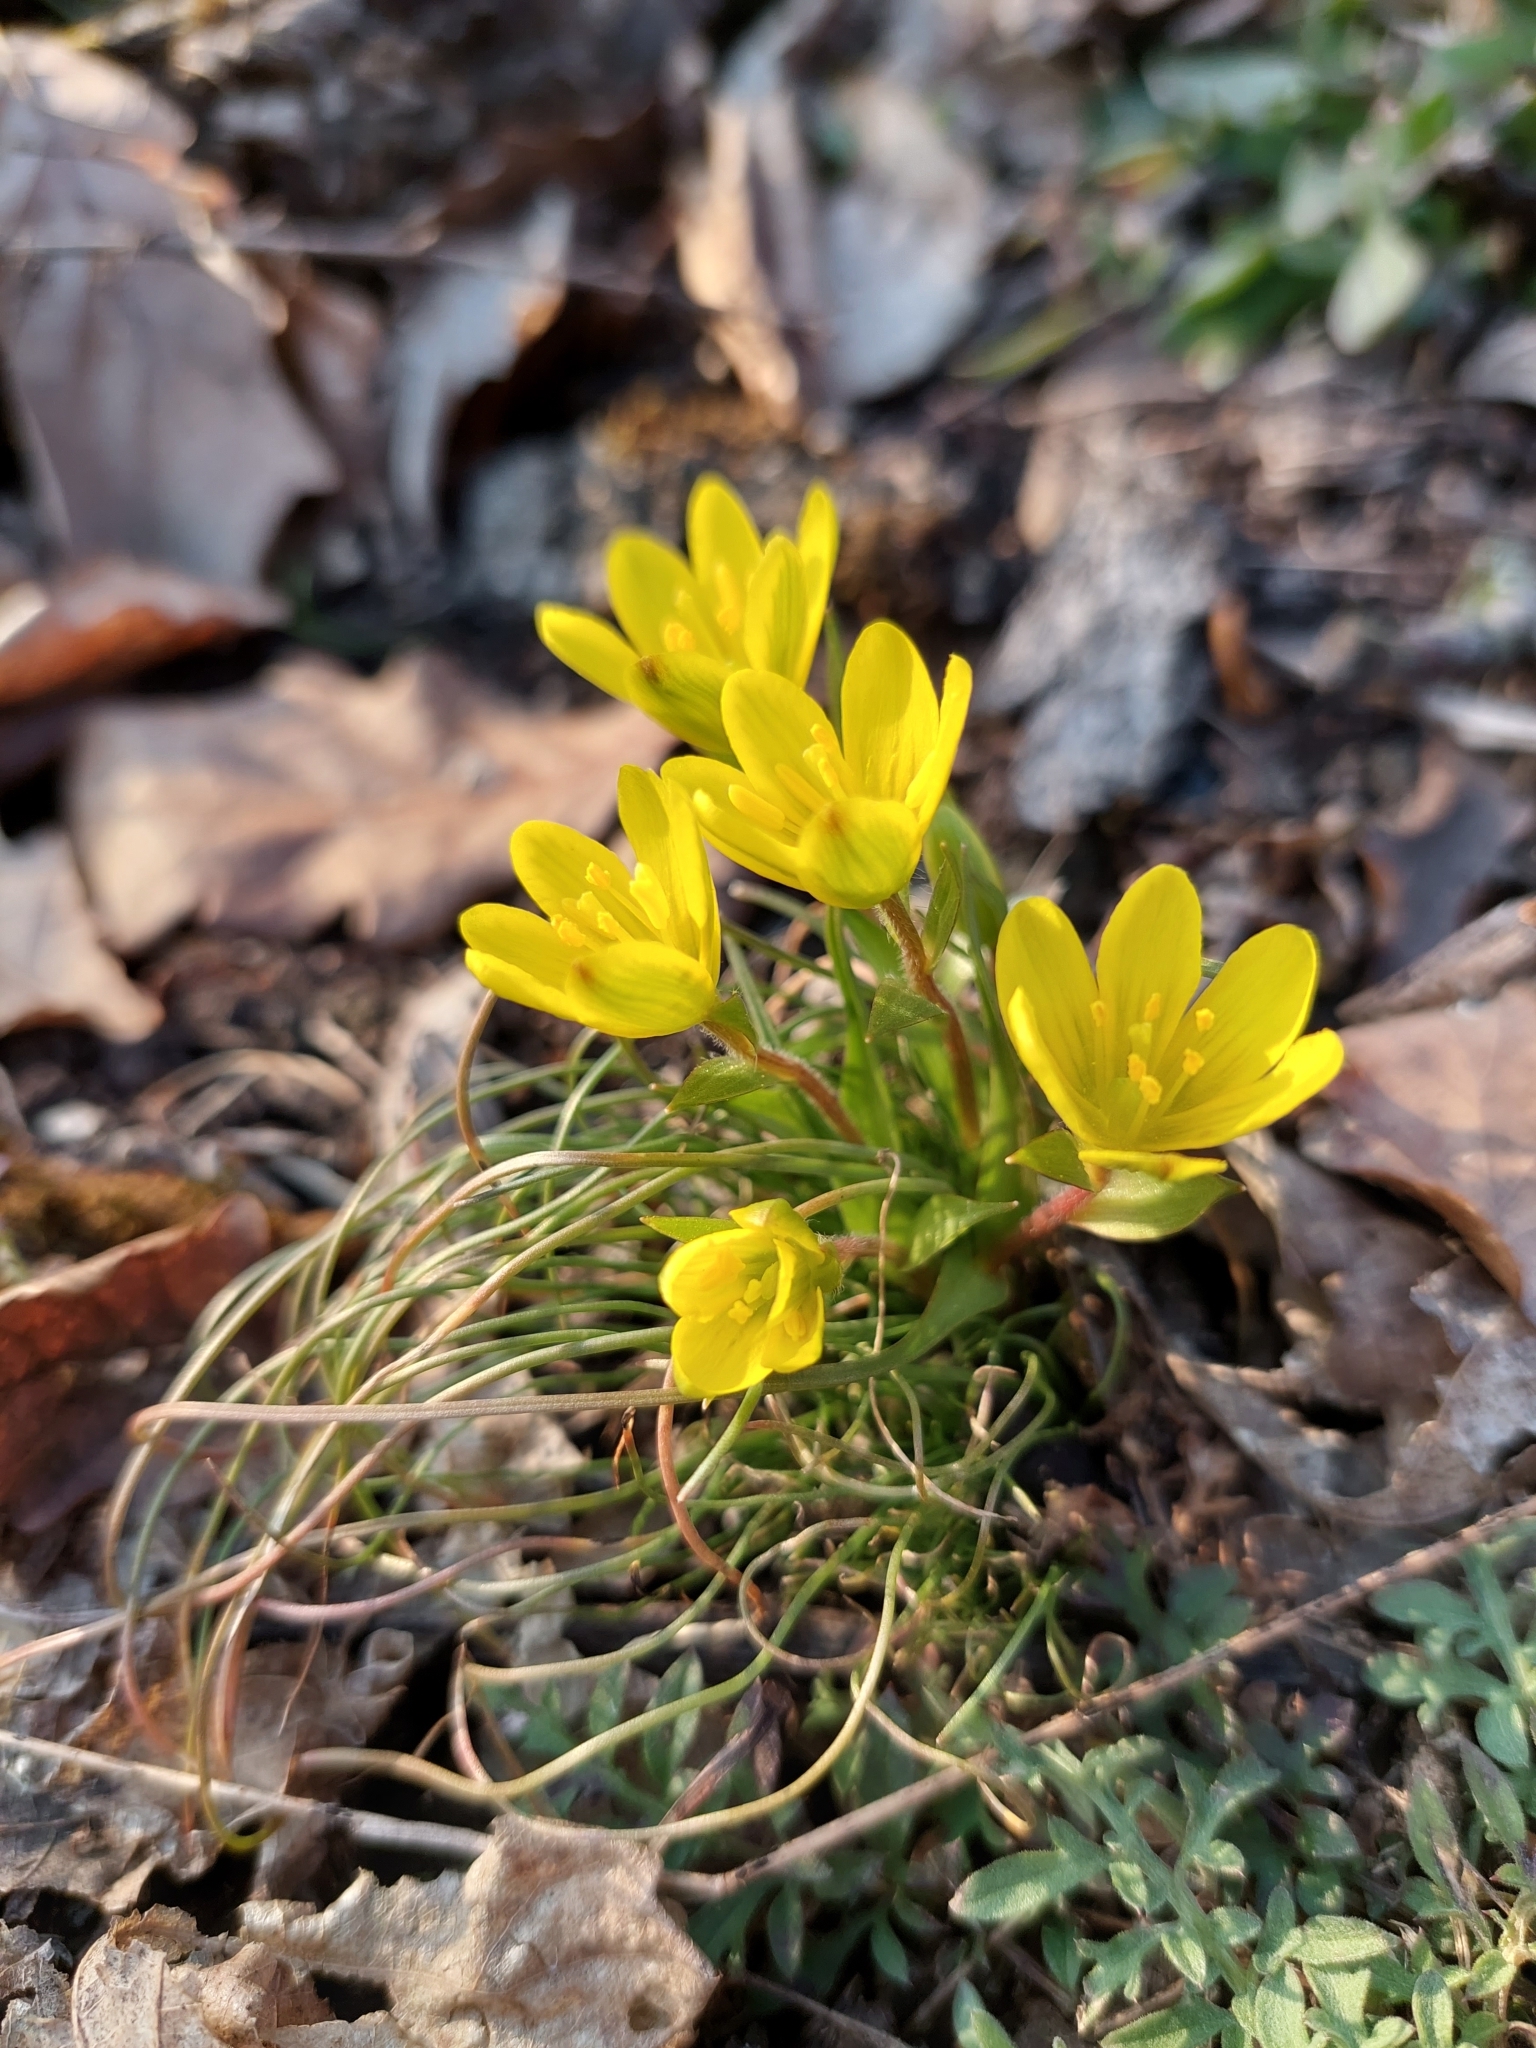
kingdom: Plantae
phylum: Tracheophyta
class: Liliopsida
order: Liliales
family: Liliaceae
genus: Gagea
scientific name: Gagea bohemica
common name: Early star-of-bethlehem
